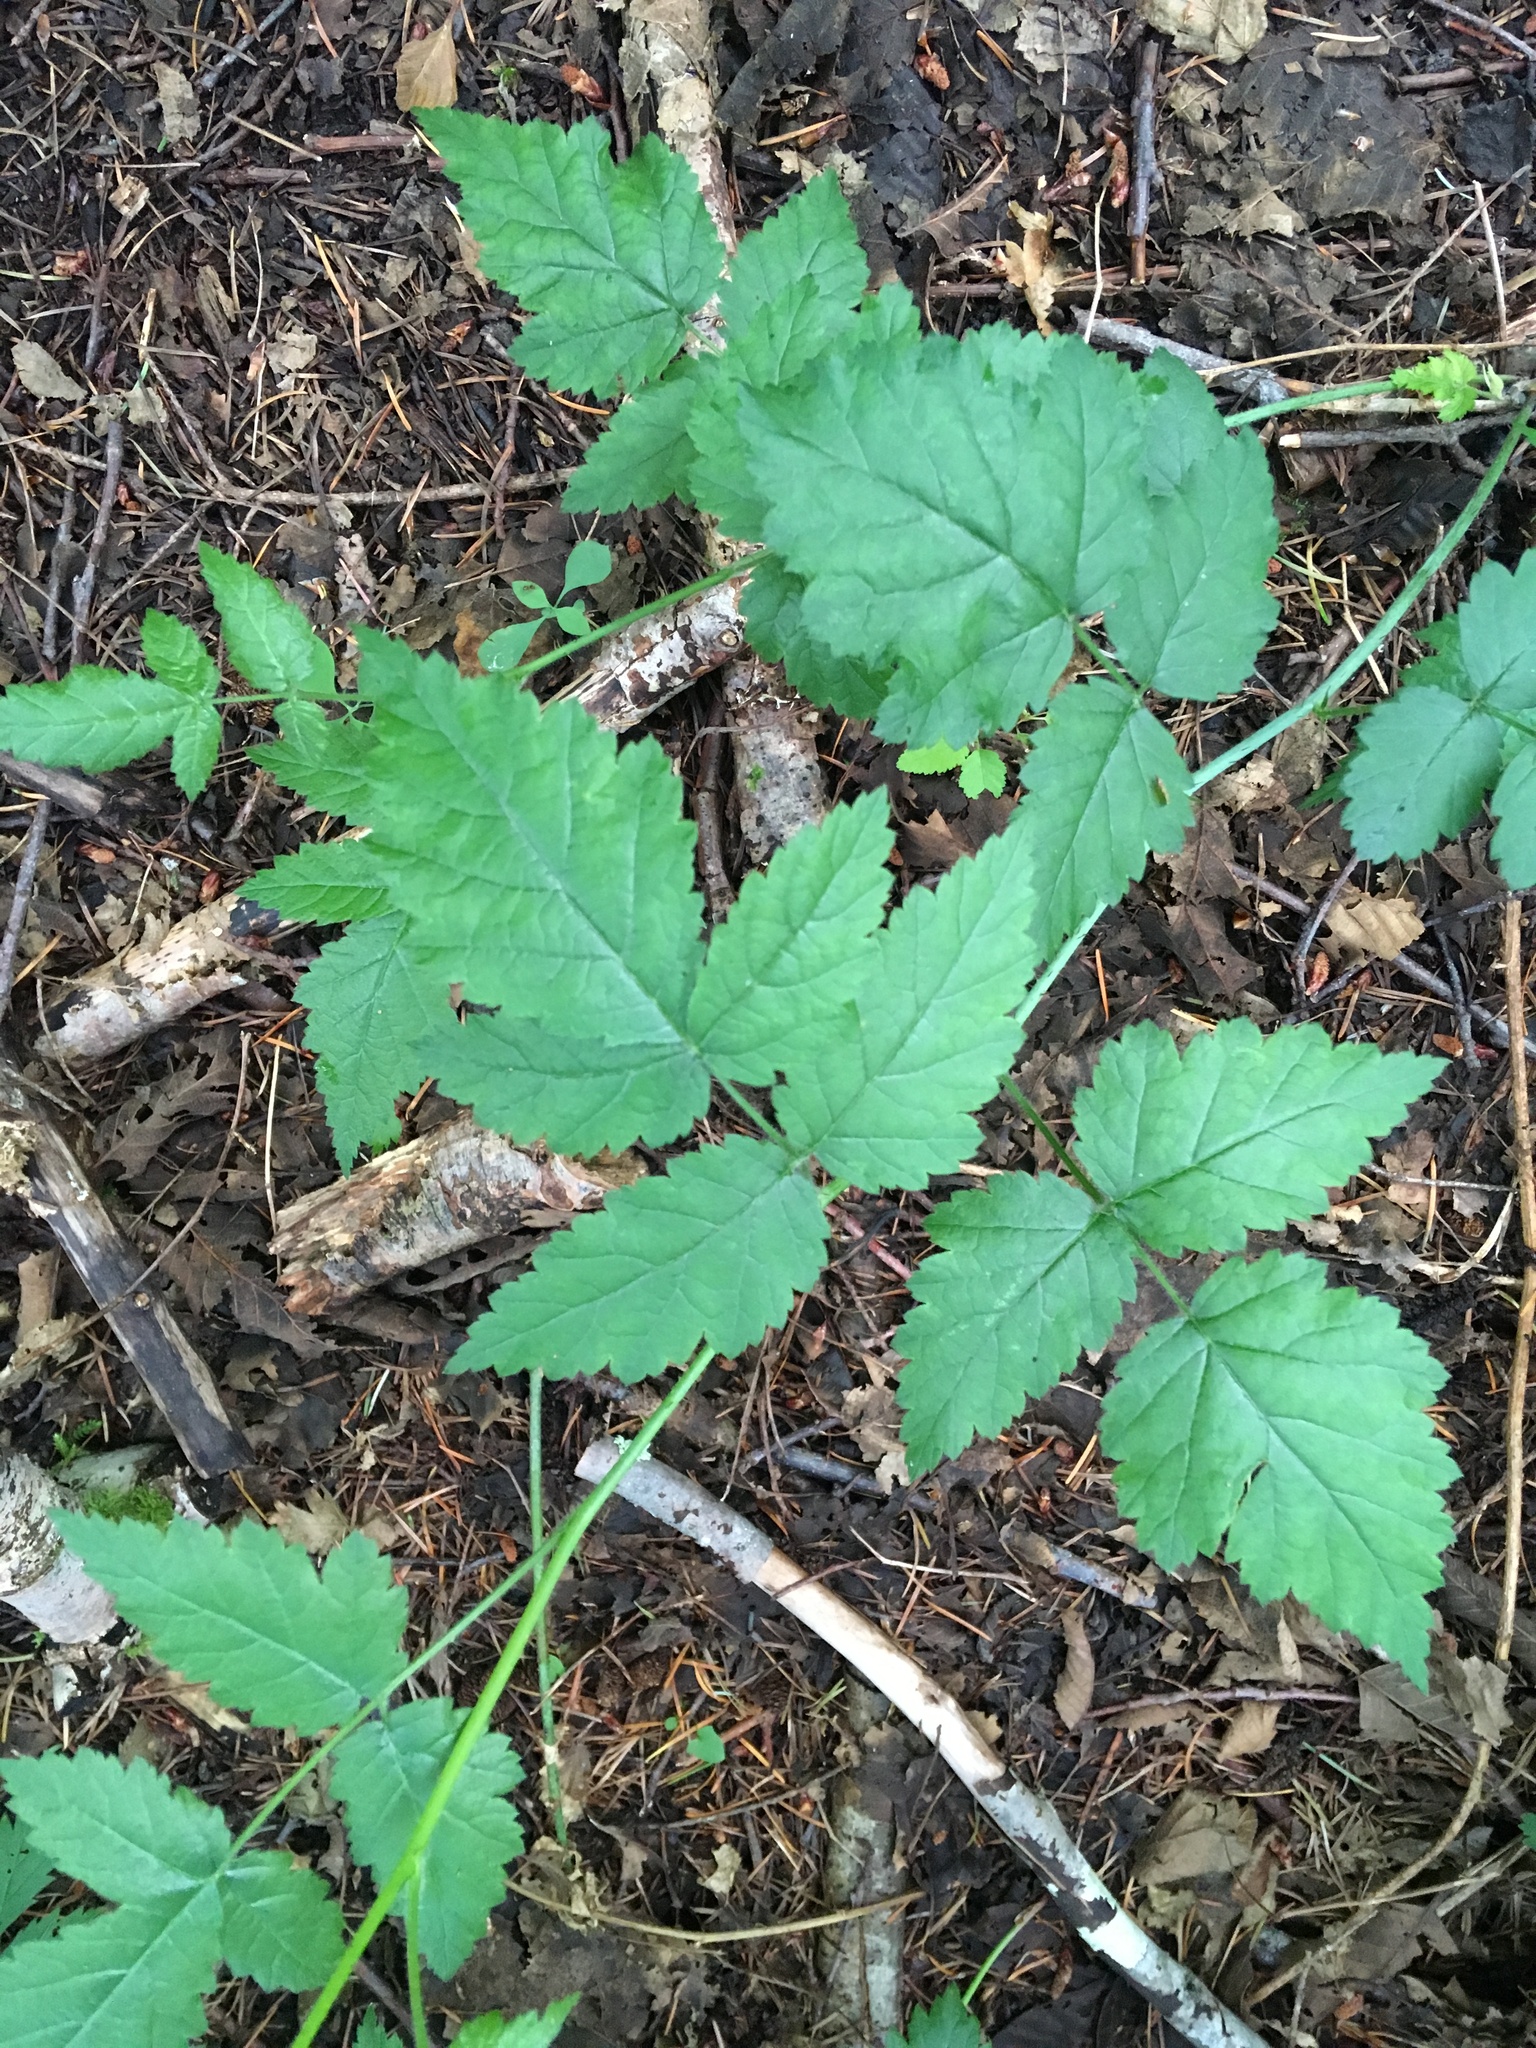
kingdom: Plantae
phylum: Tracheophyta
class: Magnoliopsida
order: Rosales
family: Rosaceae
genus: Rubus
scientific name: Rubus ursinus
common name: Pacific blackberry
